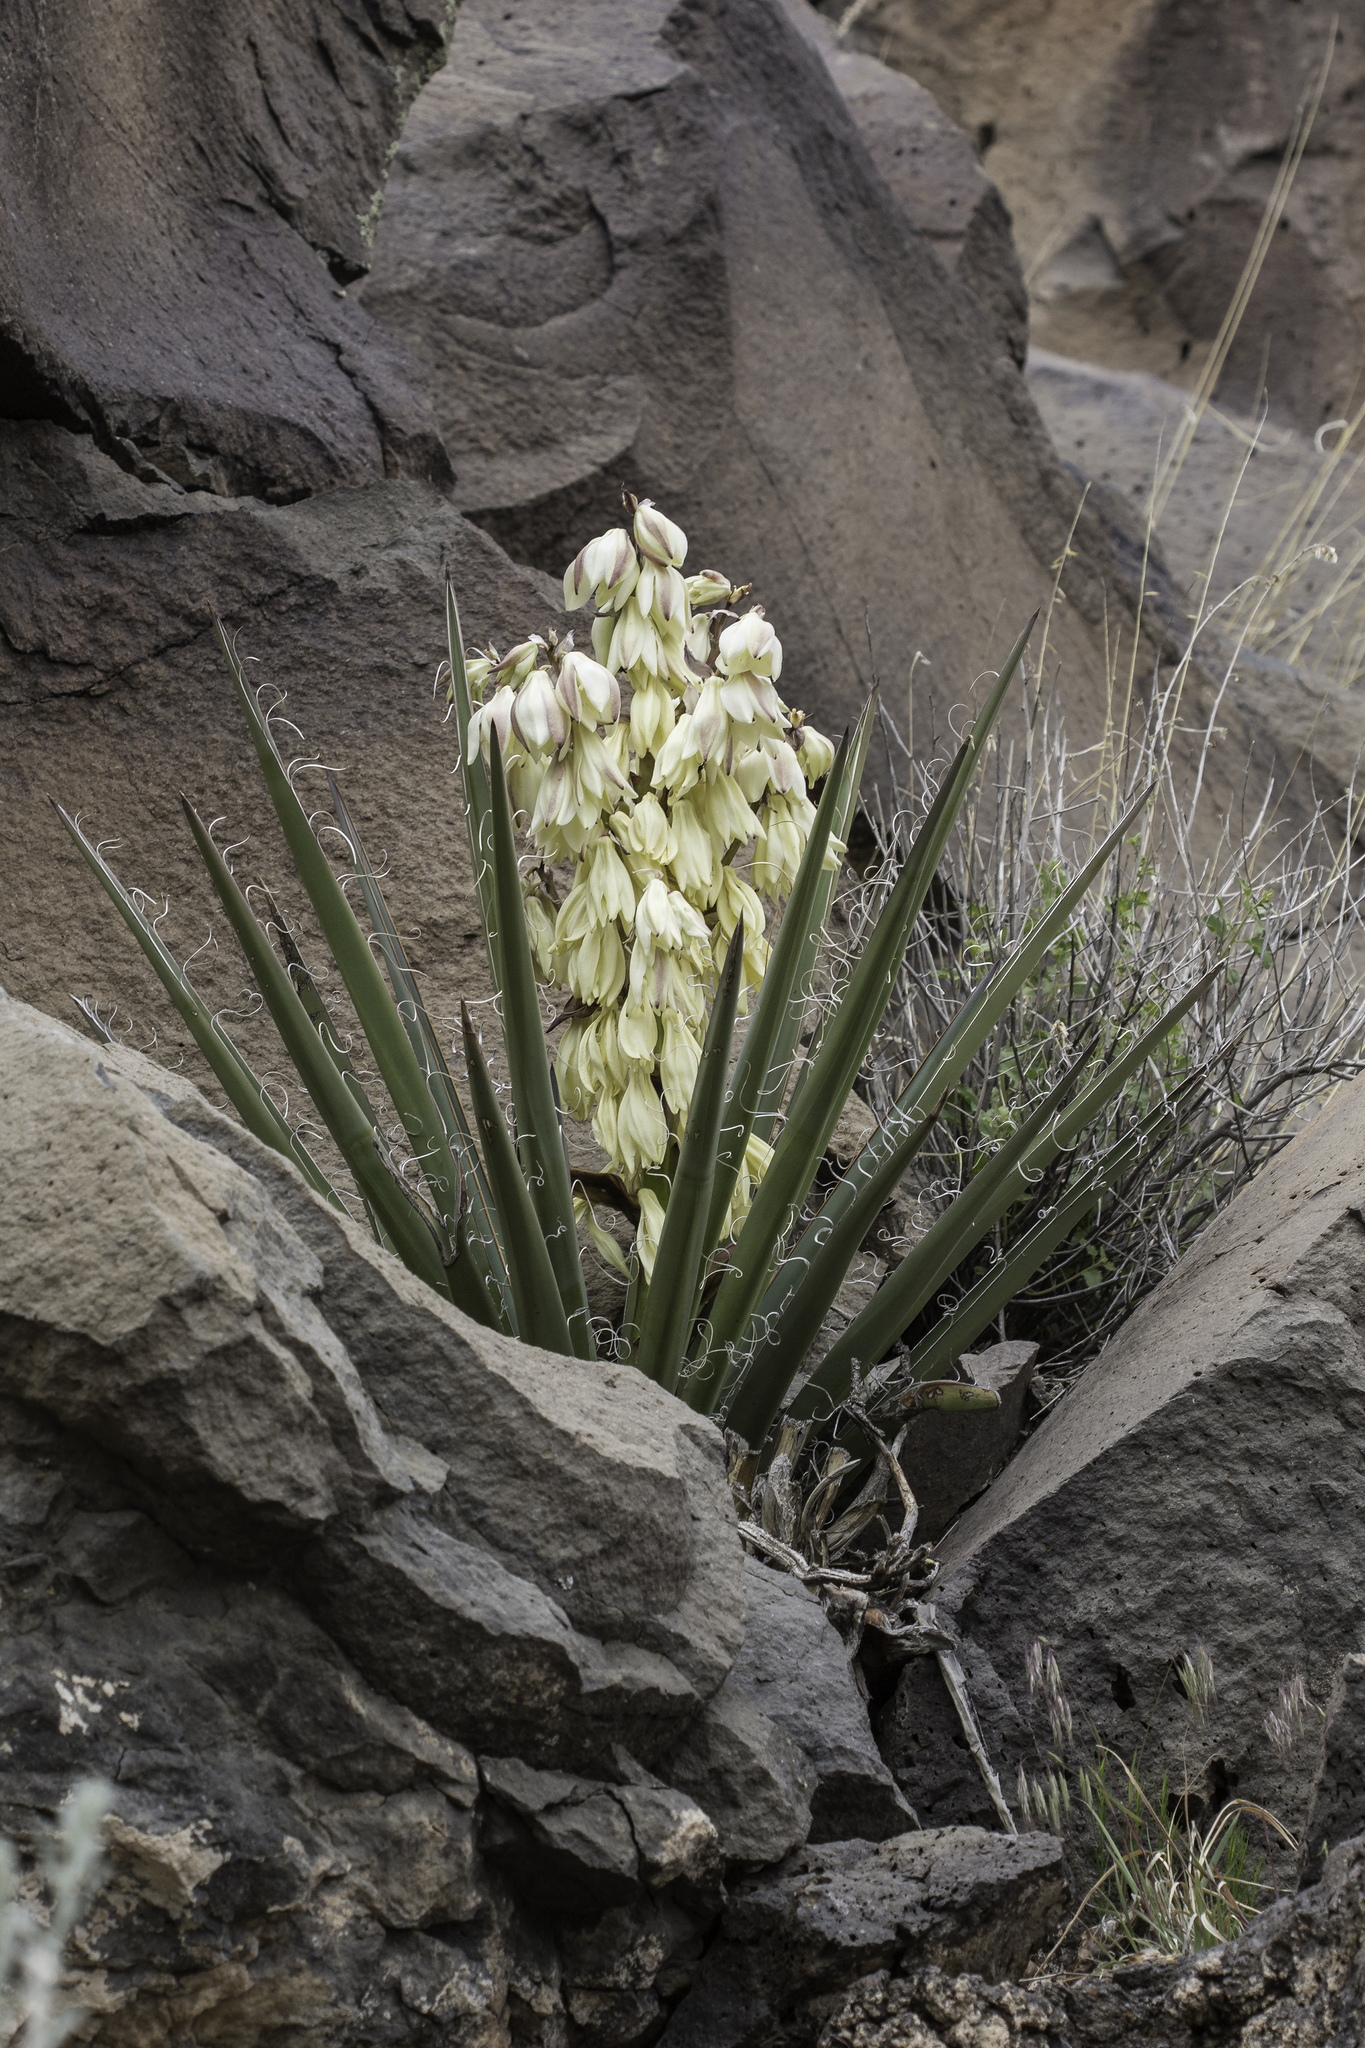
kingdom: Plantae
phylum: Tracheophyta
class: Liliopsida
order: Asparagales
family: Asparagaceae
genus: Yucca
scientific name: Yucca baccata
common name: Banana yucca
